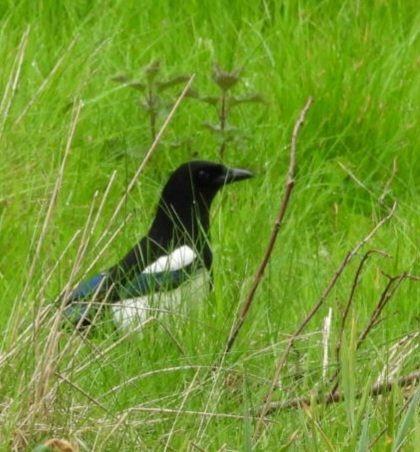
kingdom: Animalia
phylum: Chordata
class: Aves
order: Passeriformes
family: Corvidae
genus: Pica
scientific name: Pica pica
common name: Eurasian magpie
